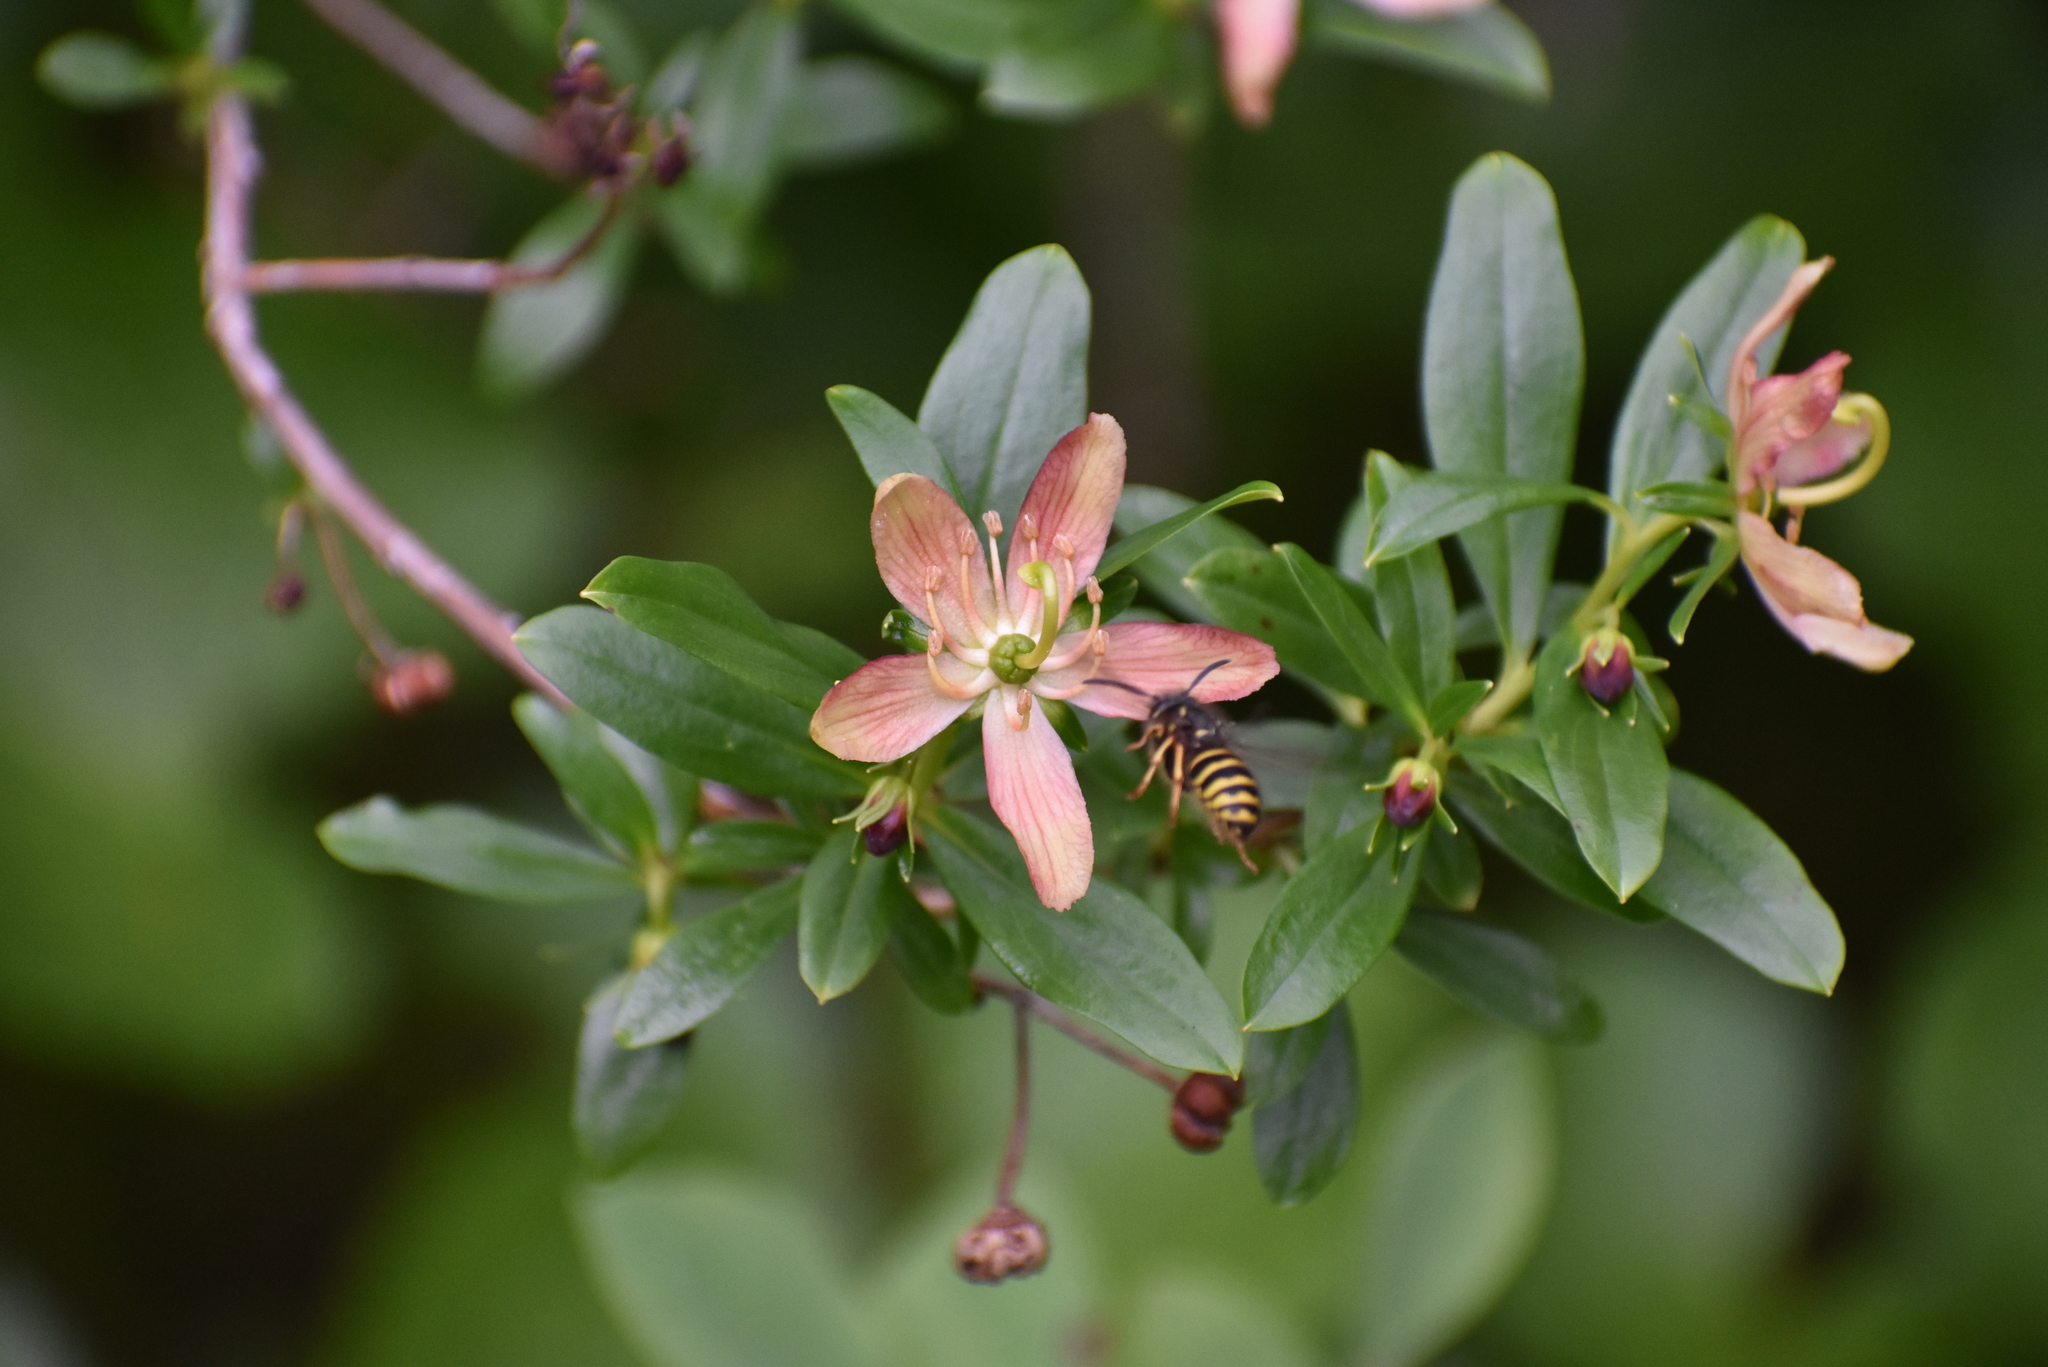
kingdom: Animalia
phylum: Arthropoda
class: Insecta
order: Hymenoptera
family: Vespidae
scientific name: Vespidae
